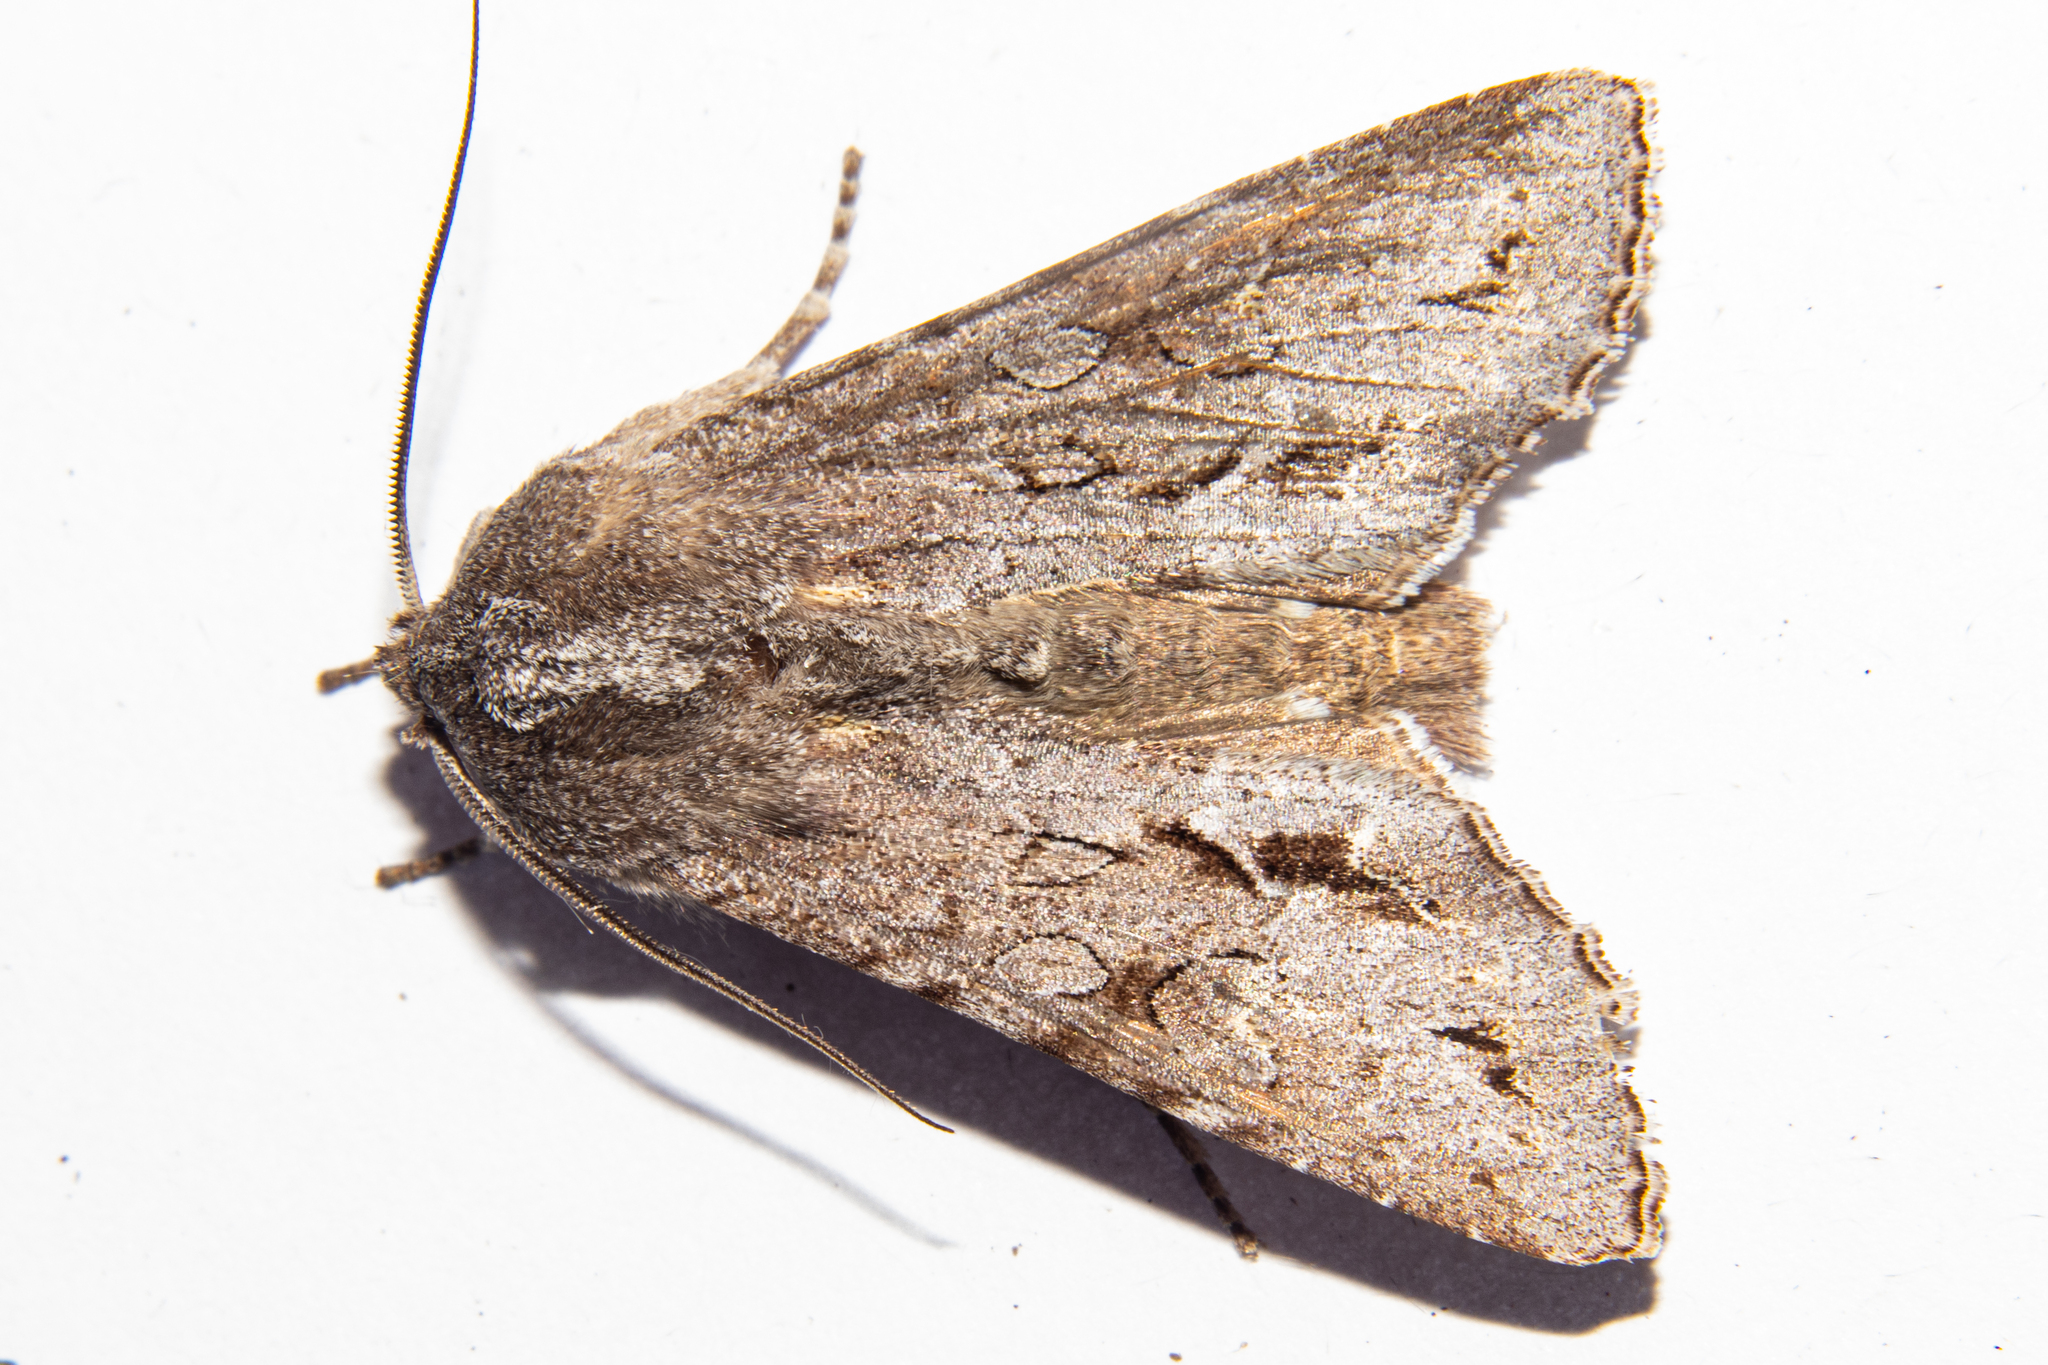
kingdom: Animalia
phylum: Arthropoda
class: Insecta
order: Lepidoptera
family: Noctuidae
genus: Ichneutica
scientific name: Ichneutica
